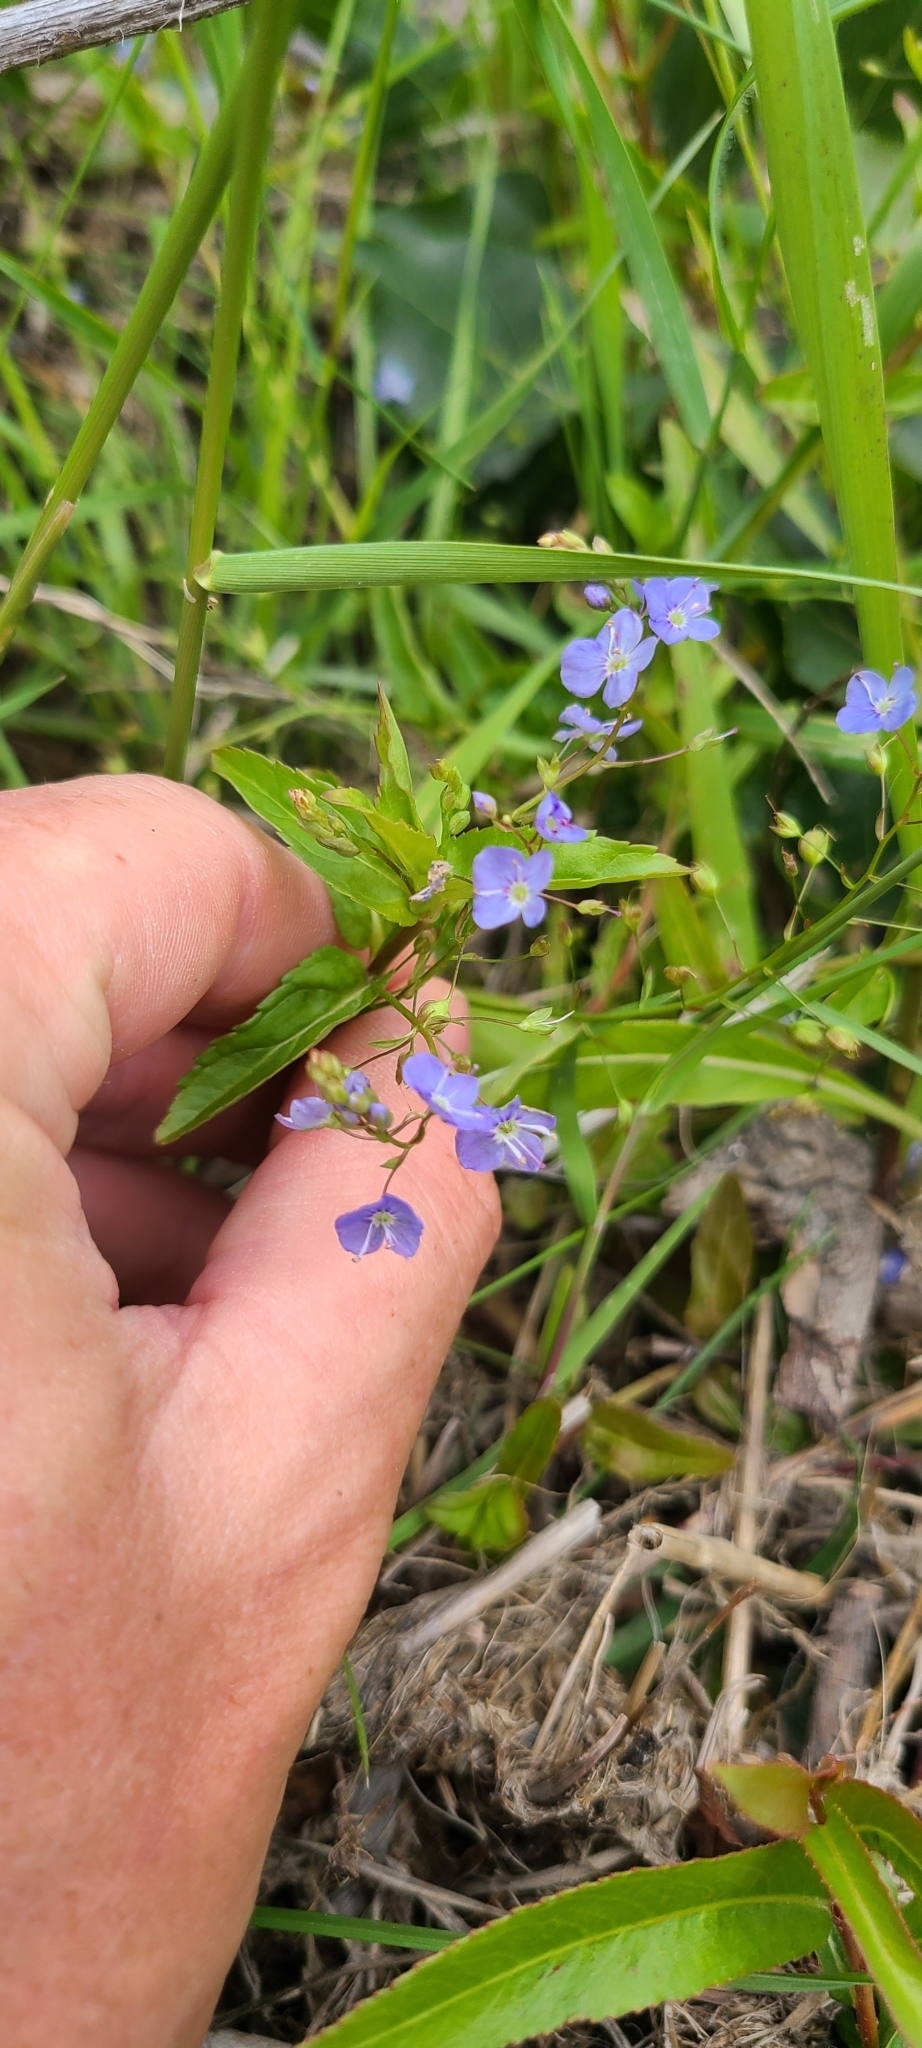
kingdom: Plantae
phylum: Tracheophyta
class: Magnoliopsida
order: Lamiales
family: Plantaginaceae
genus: Veronica
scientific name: Veronica americana
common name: American brooklime
